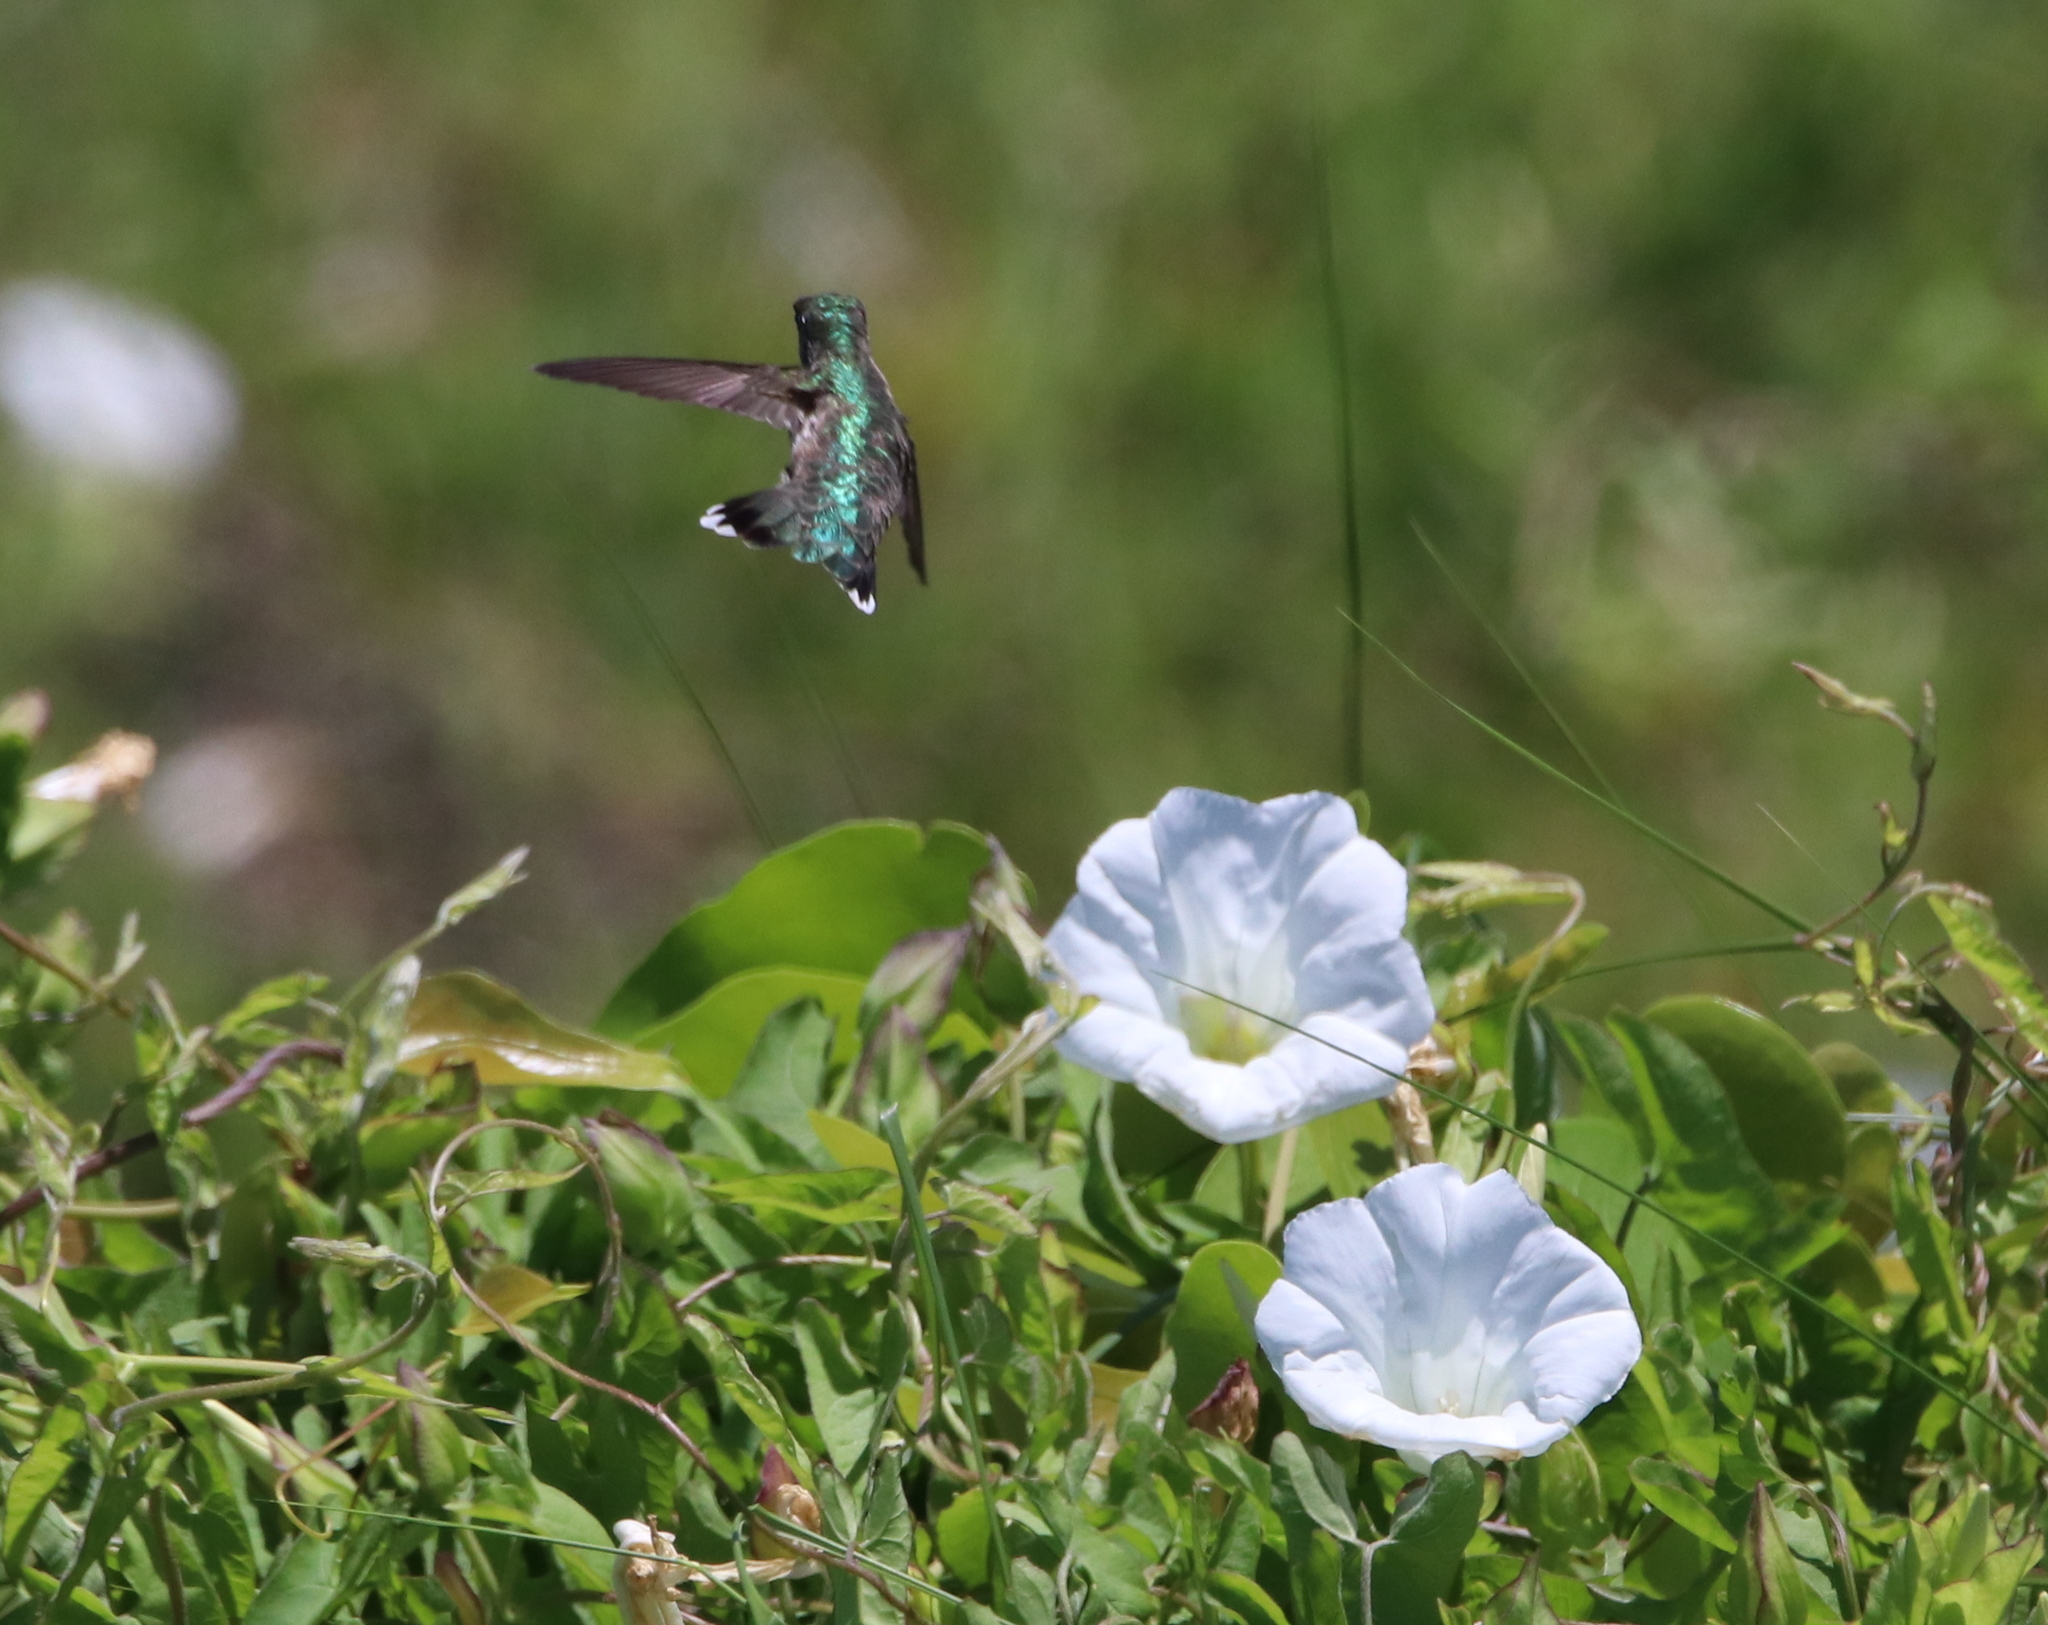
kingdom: Animalia
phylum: Chordata
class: Aves
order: Apodiformes
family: Trochilidae
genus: Archilochus
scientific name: Archilochus colubris
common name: Ruby-throated hummingbird
